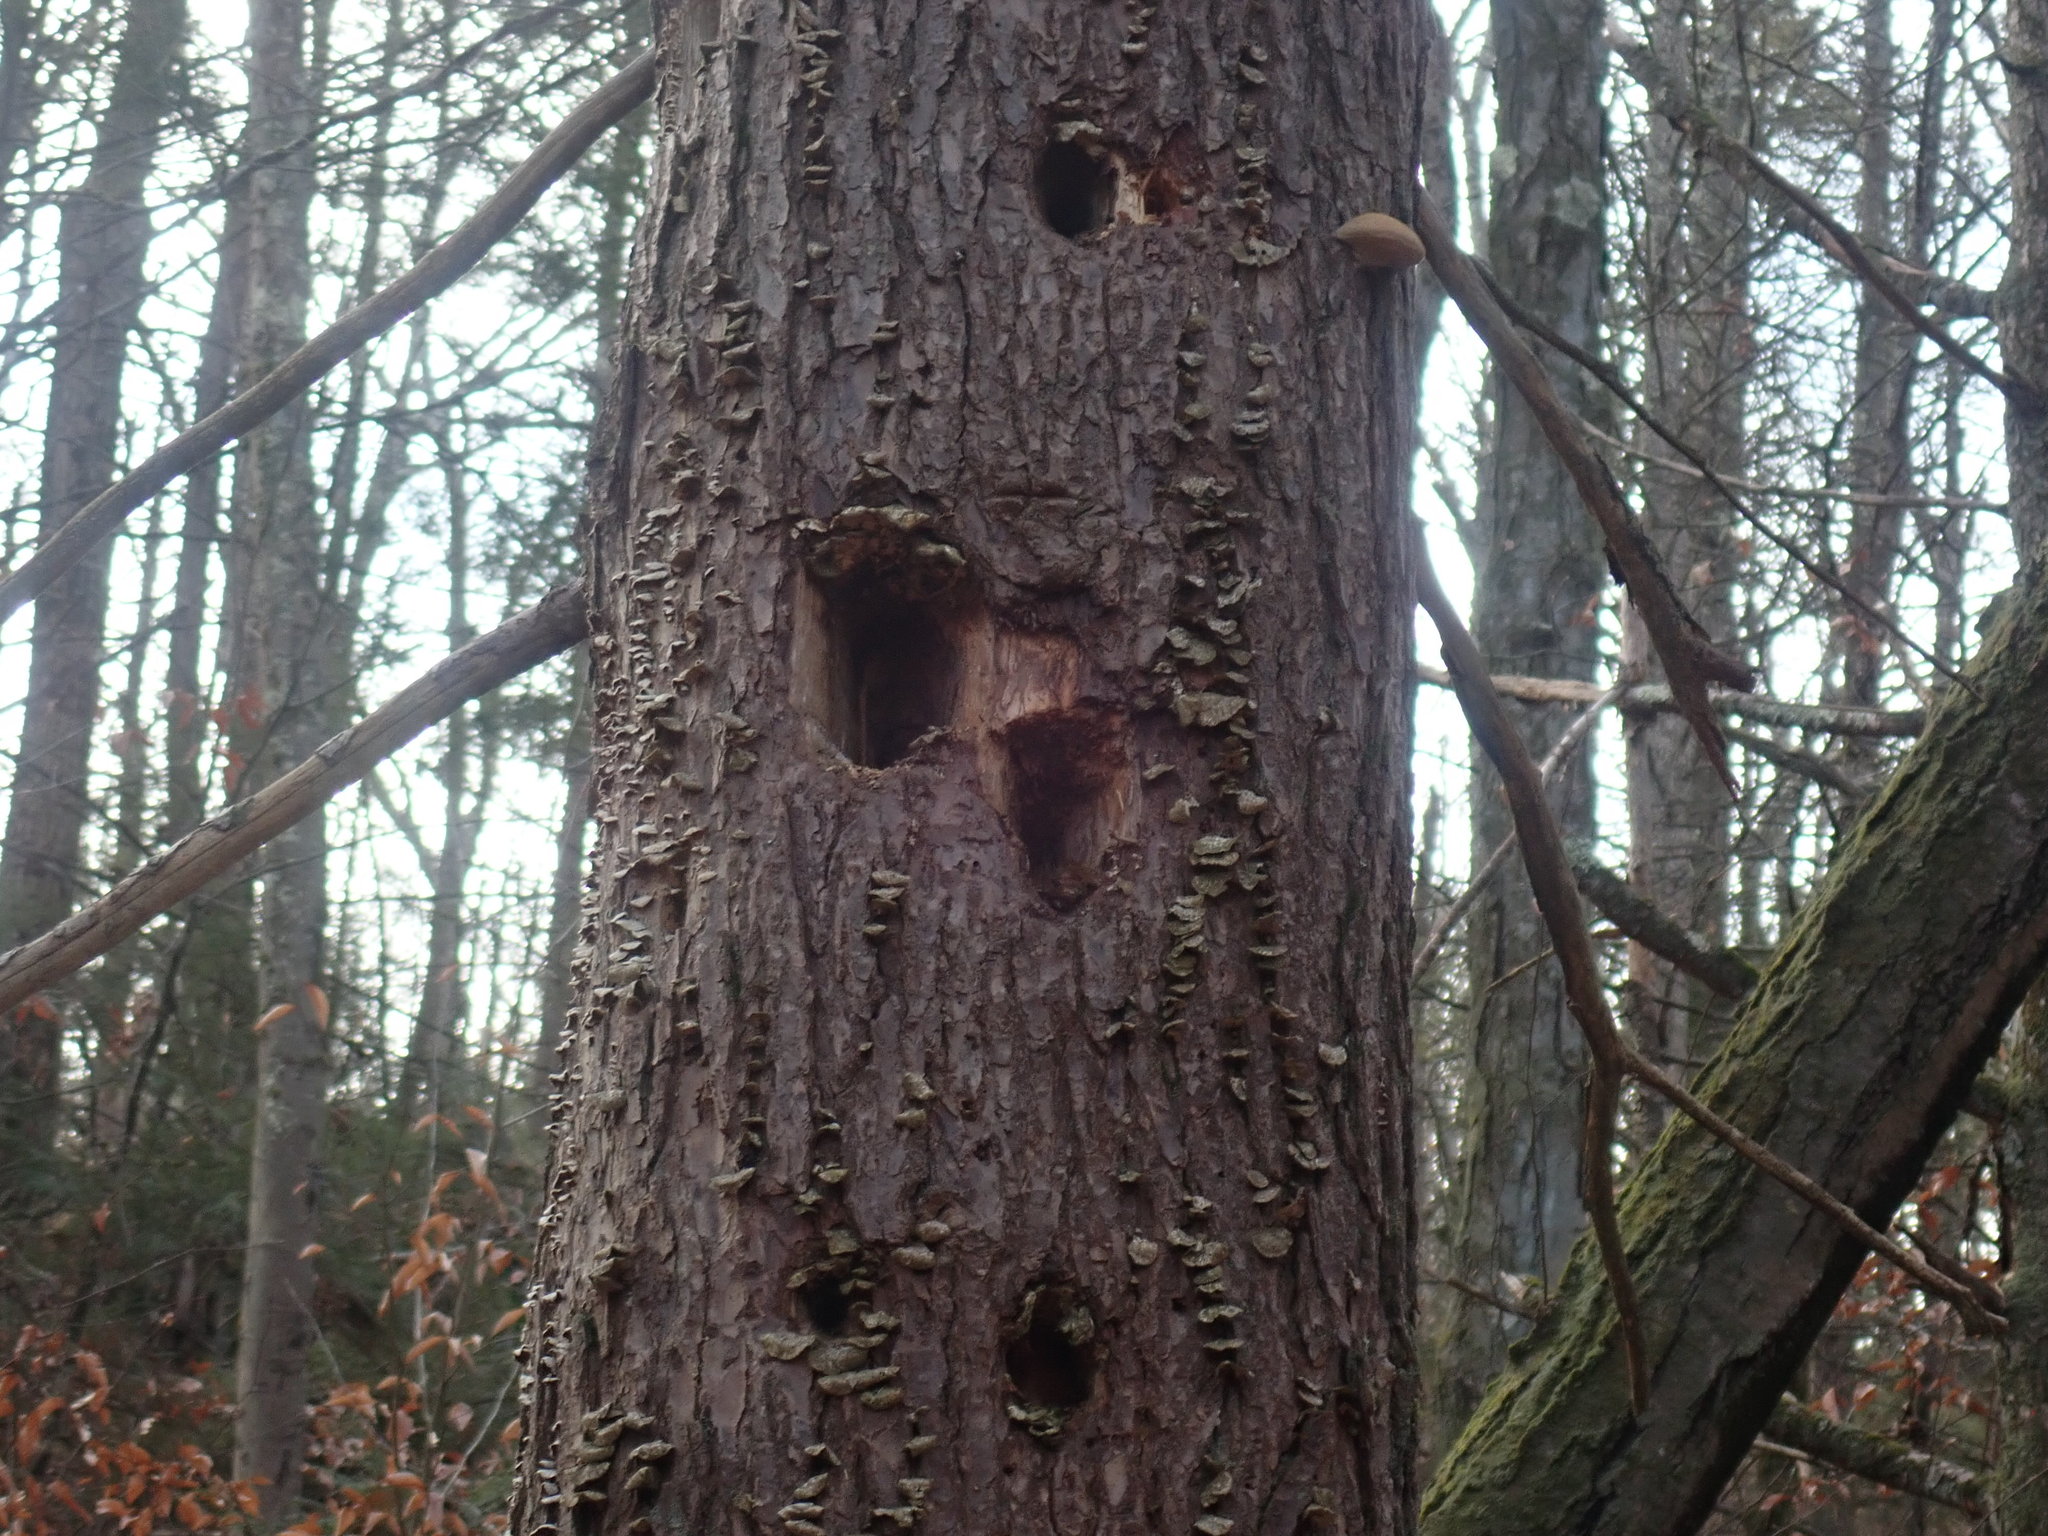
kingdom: Animalia
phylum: Chordata
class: Aves
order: Piciformes
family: Picidae
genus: Dryocopus
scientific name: Dryocopus pileatus
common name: Pileated woodpecker
